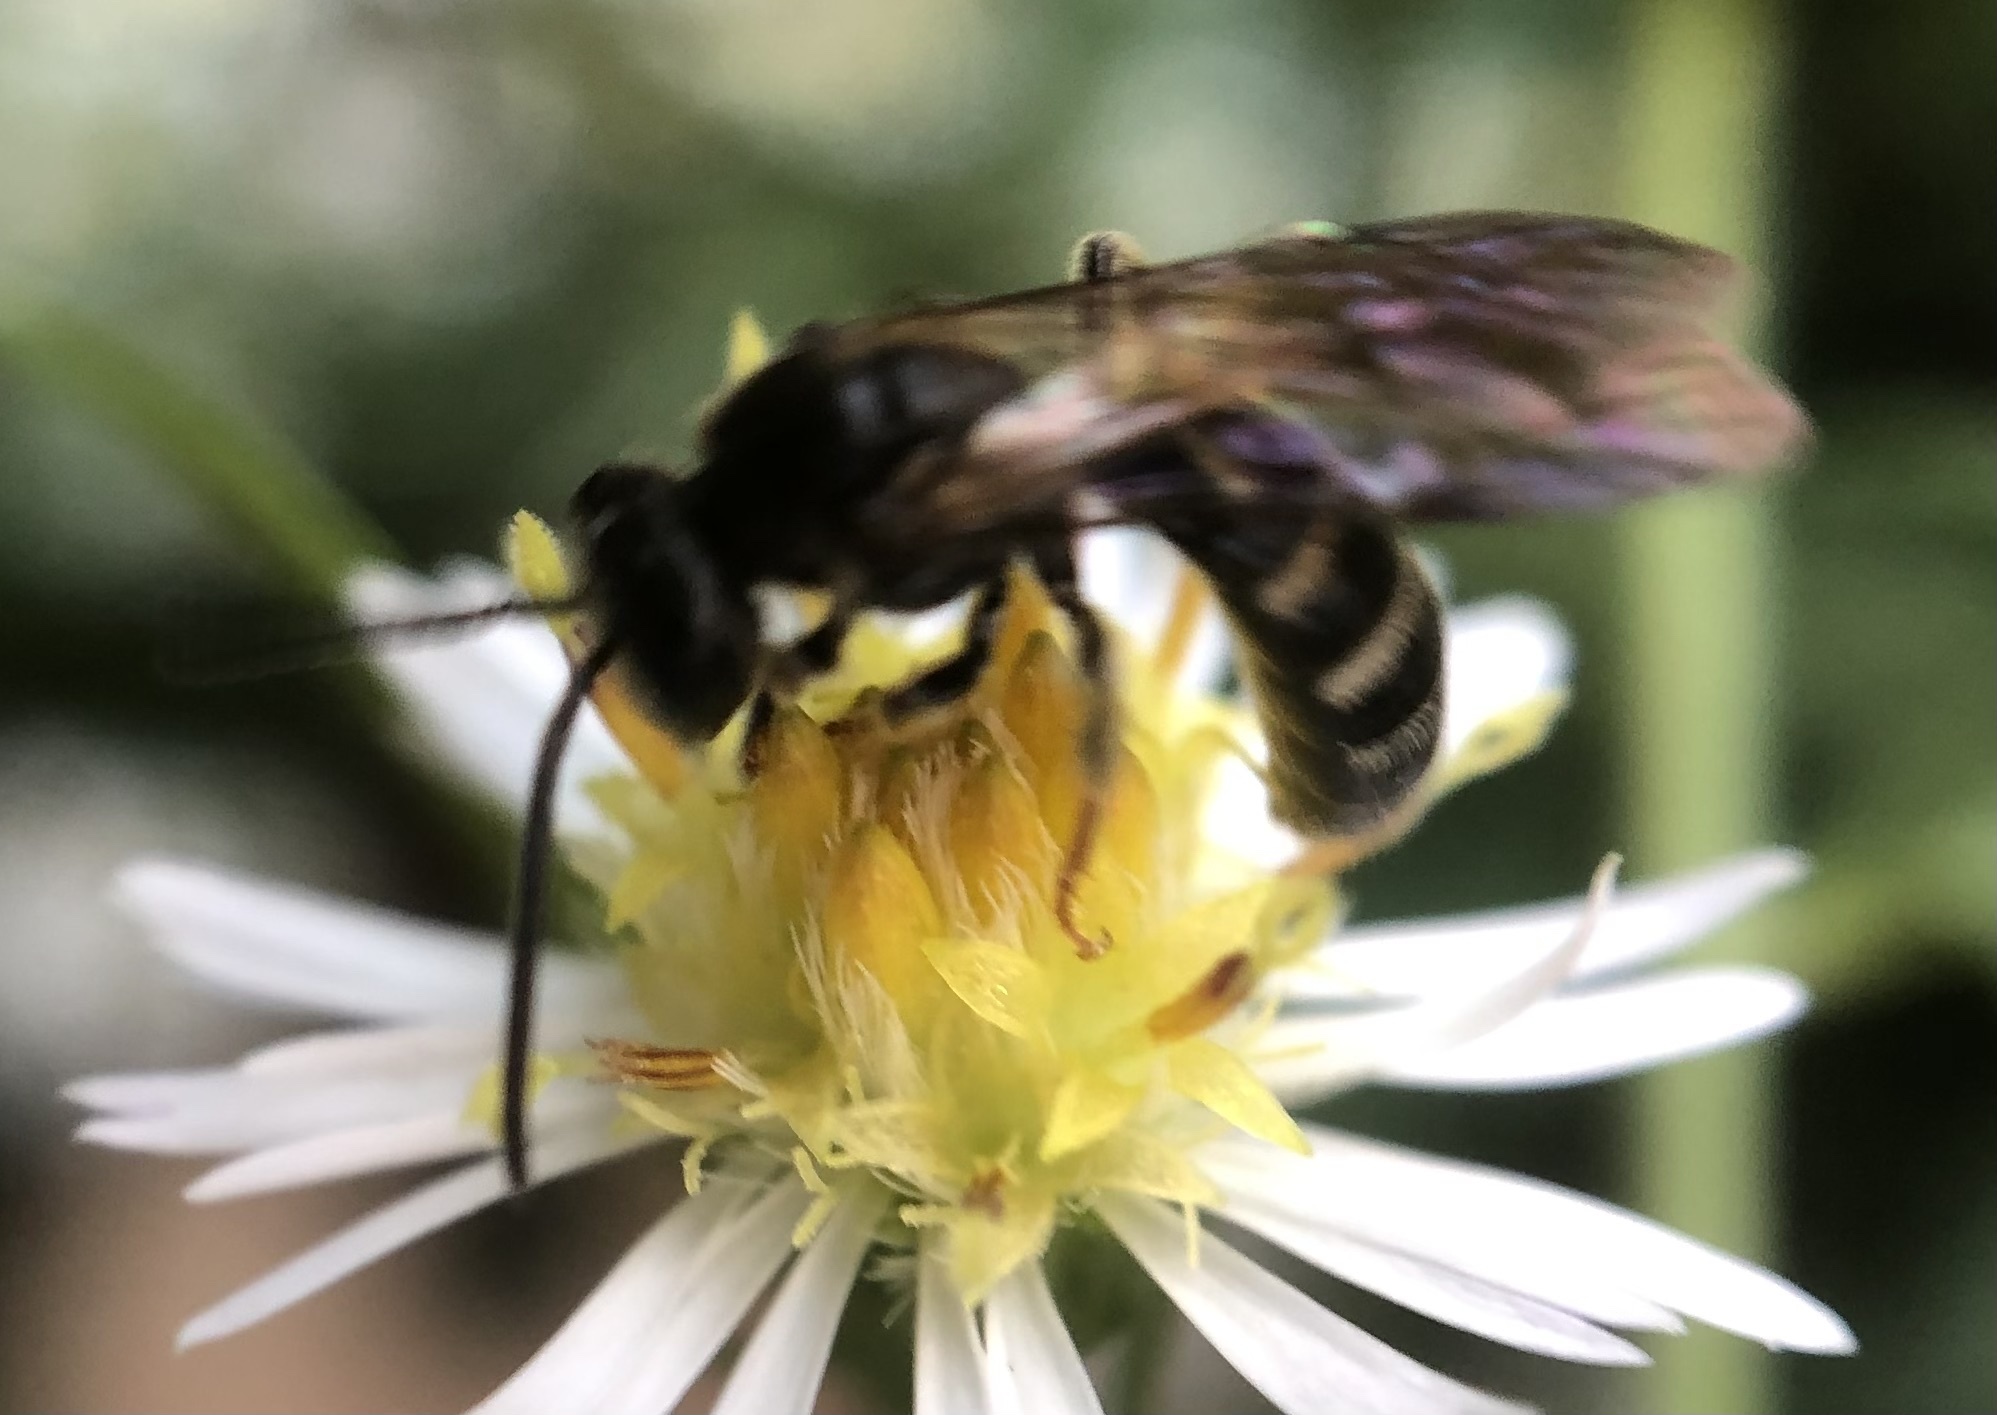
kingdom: Animalia
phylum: Arthropoda
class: Insecta
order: Hymenoptera
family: Halictidae
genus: Lasioglossum
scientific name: Lasioglossum fuscipenne
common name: Brown-winged sweat bee
